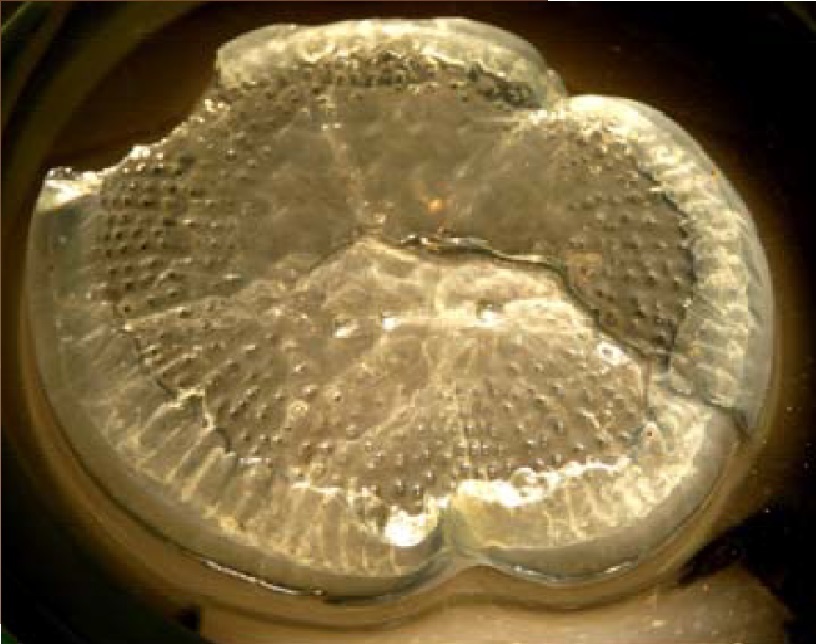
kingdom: Animalia
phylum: Cnidaria
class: Hydrozoa
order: Leptothecata
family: Aequoreidae
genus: Rhacostoma
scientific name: Rhacostoma atlanticum
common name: Lined water jelly
